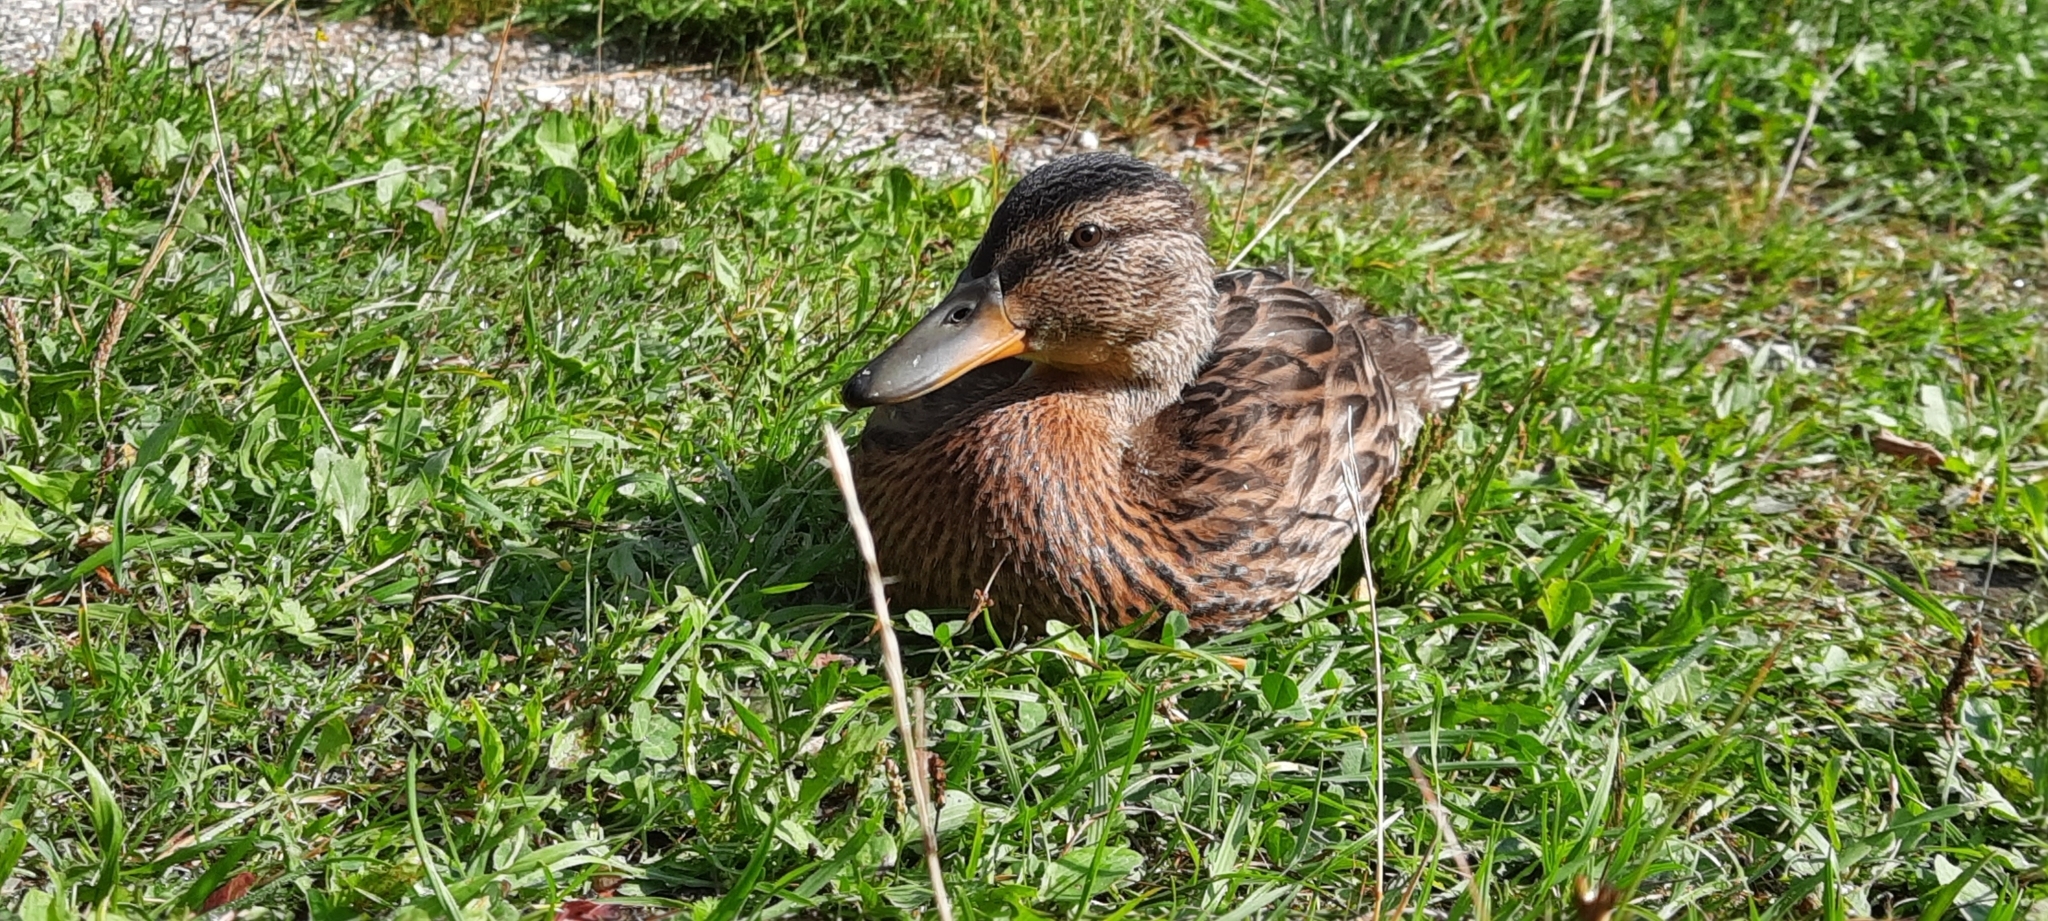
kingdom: Animalia
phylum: Chordata
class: Aves
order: Anseriformes
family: Anatidae
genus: Anas
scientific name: Anas platyrhynchos
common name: Mallard
